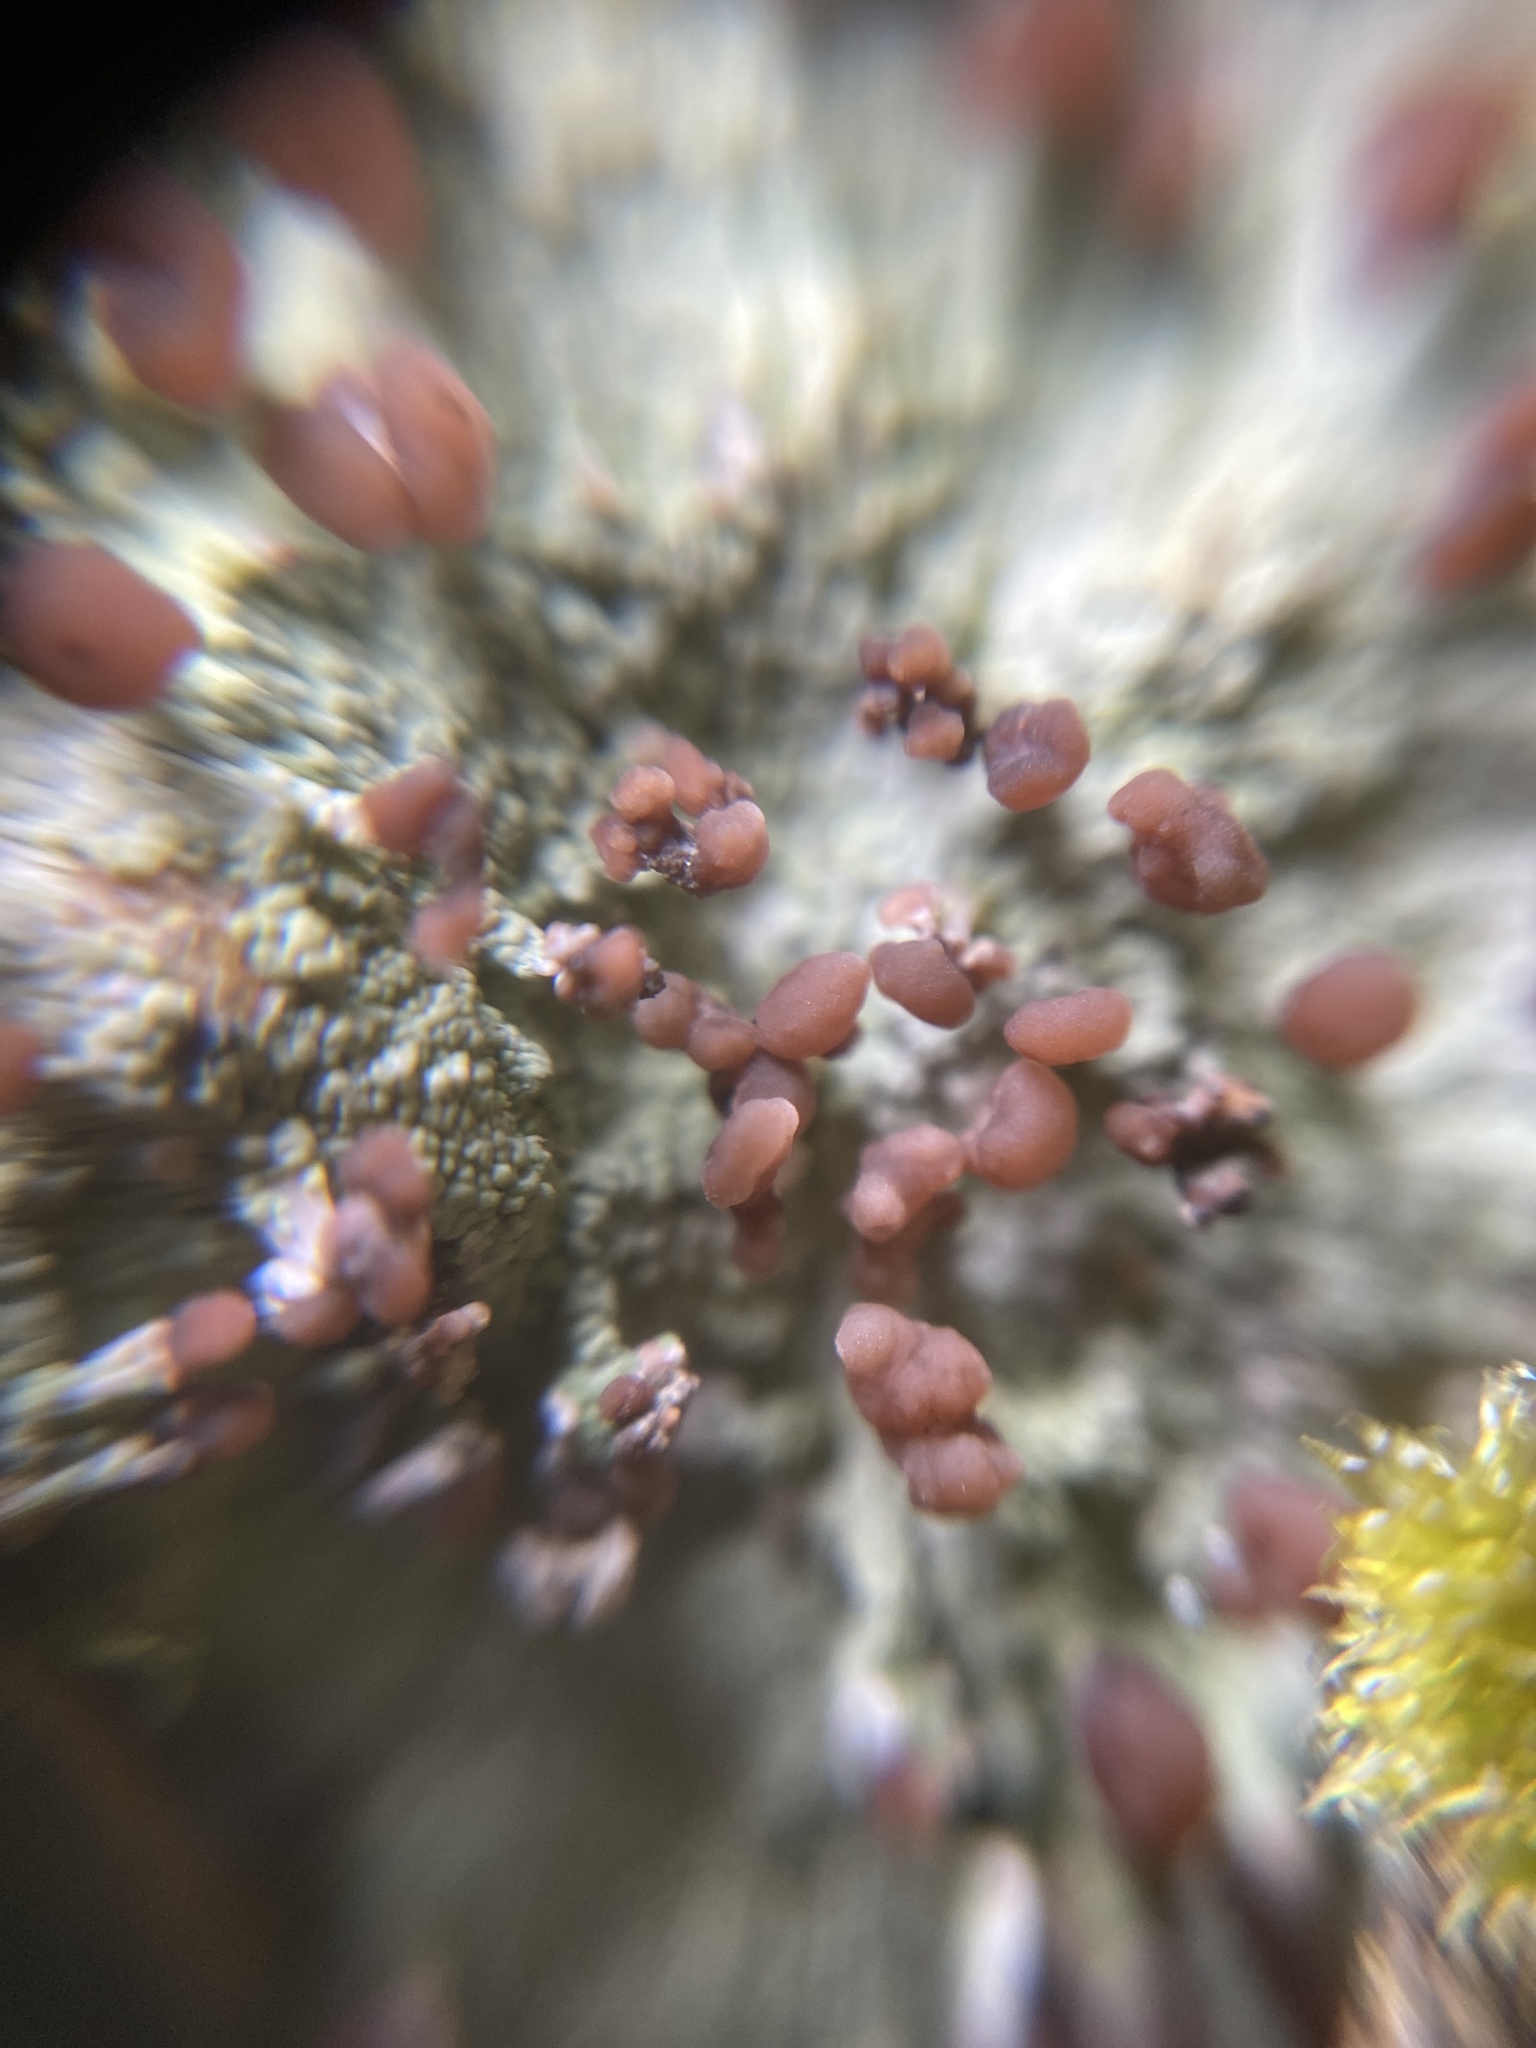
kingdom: Fungi
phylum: Ascomycota
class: Lecanoromycetes
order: Baeomycetales
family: Baeomycetaceae
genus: Baeomyces
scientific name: Baeomyces rufus
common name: Brown beret lichen
